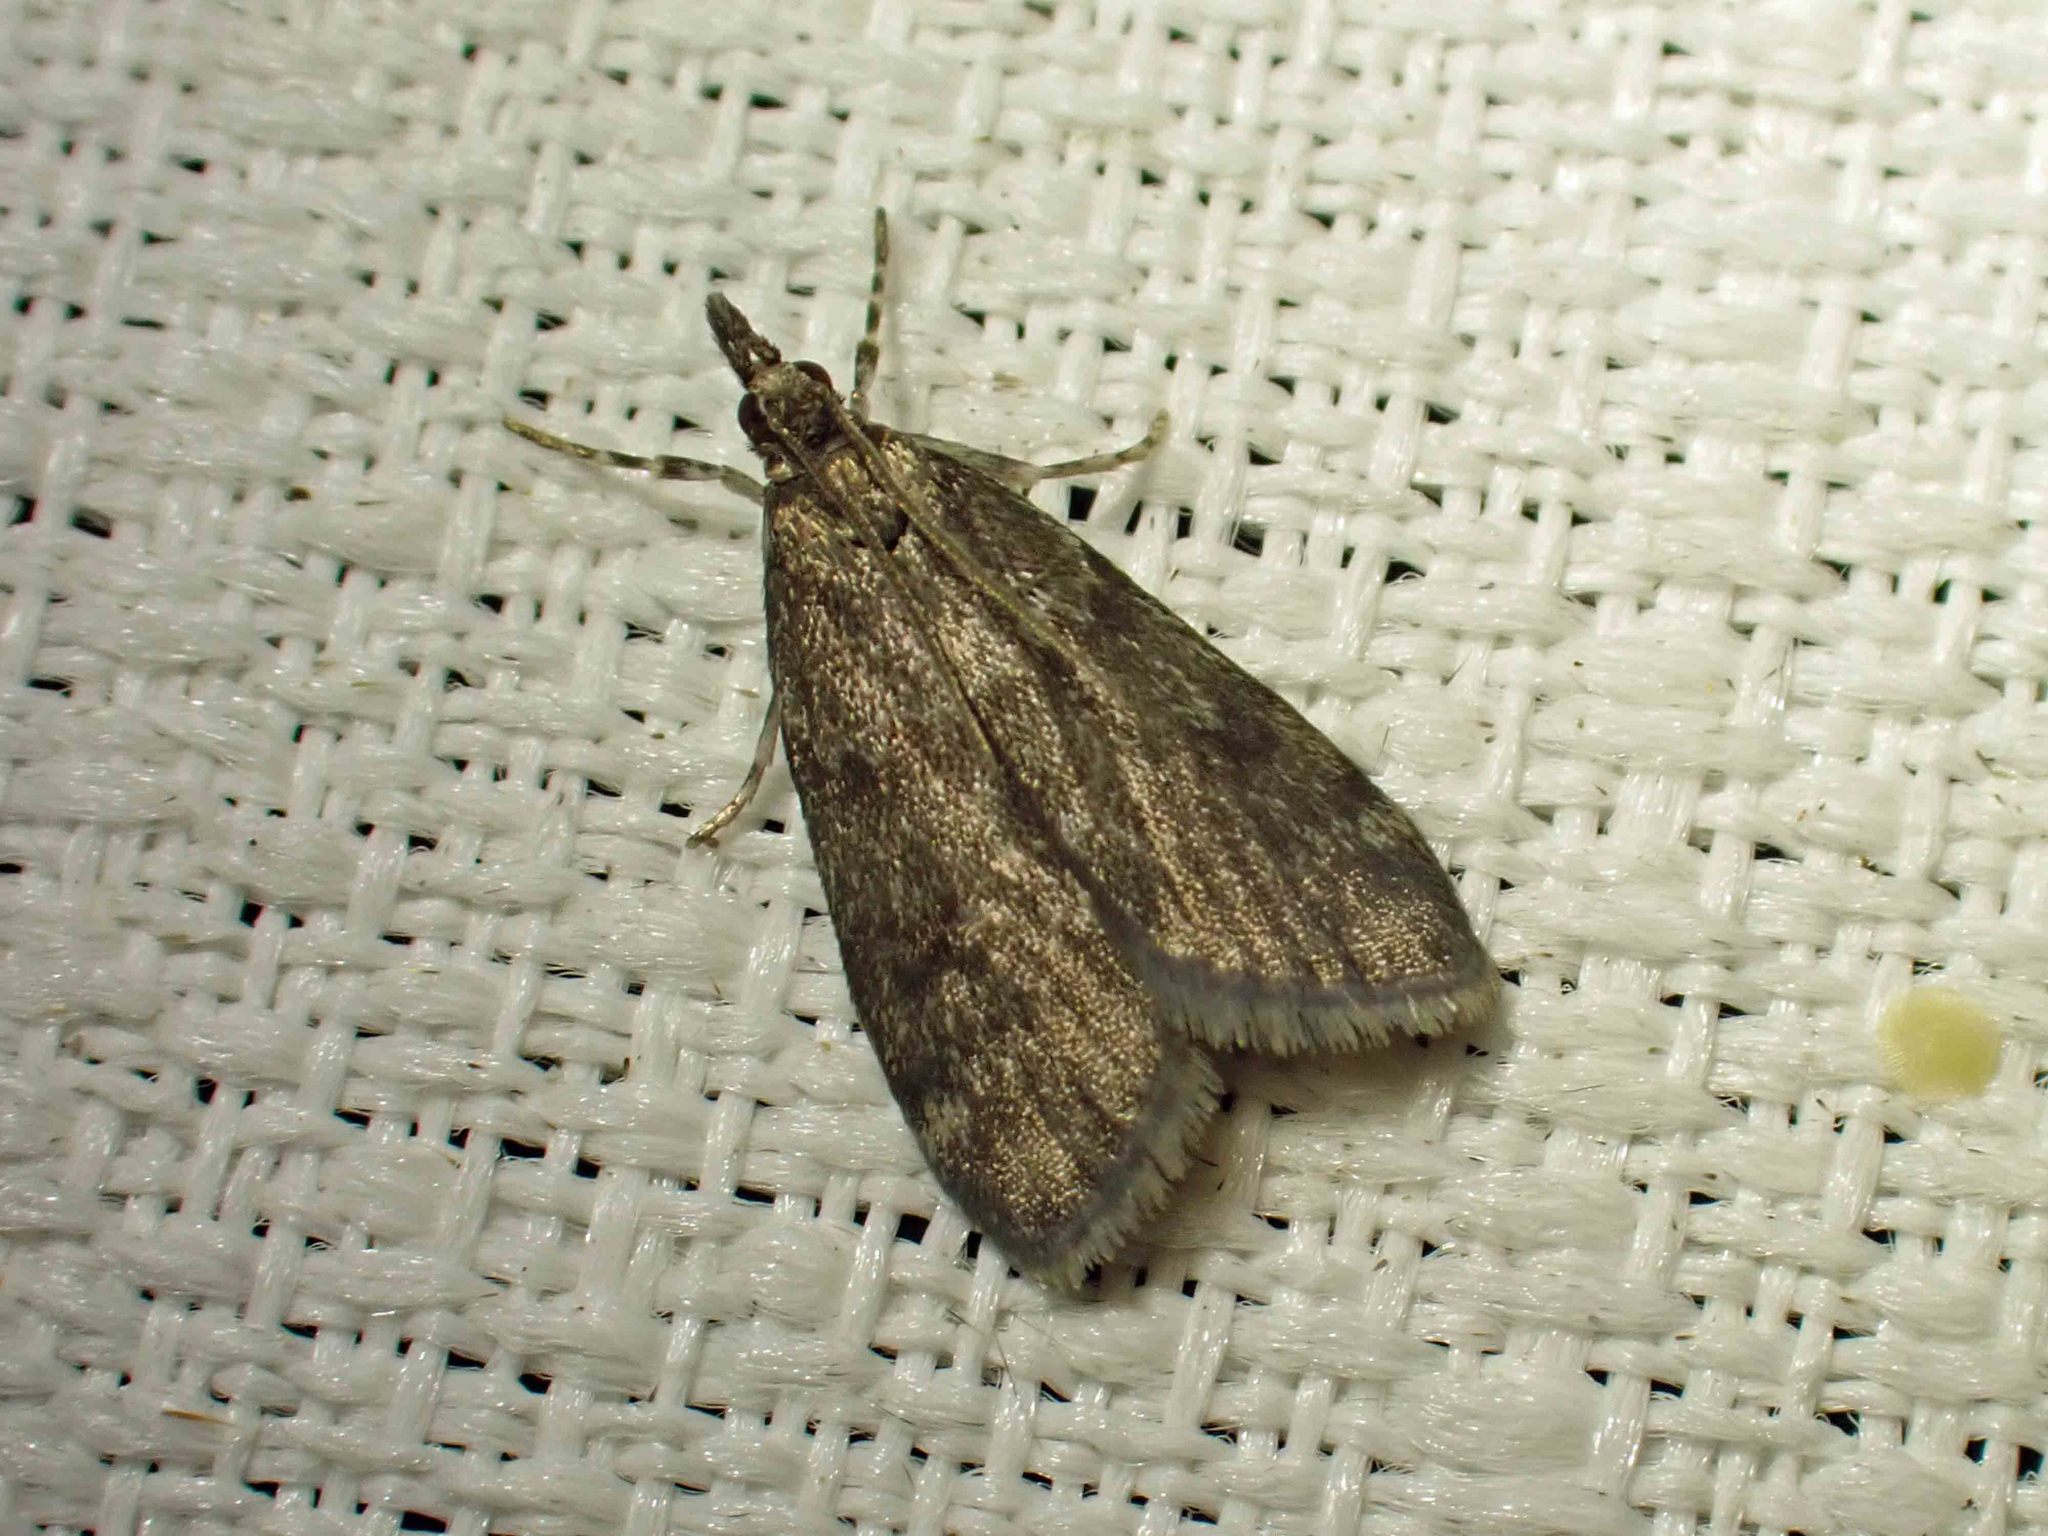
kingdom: Animalia
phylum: Arthropoda
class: Insecta
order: Lepidoptera
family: Crambidae
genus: Scoparia
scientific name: Scoparia penumbralis
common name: Dark brown scoparia moth
